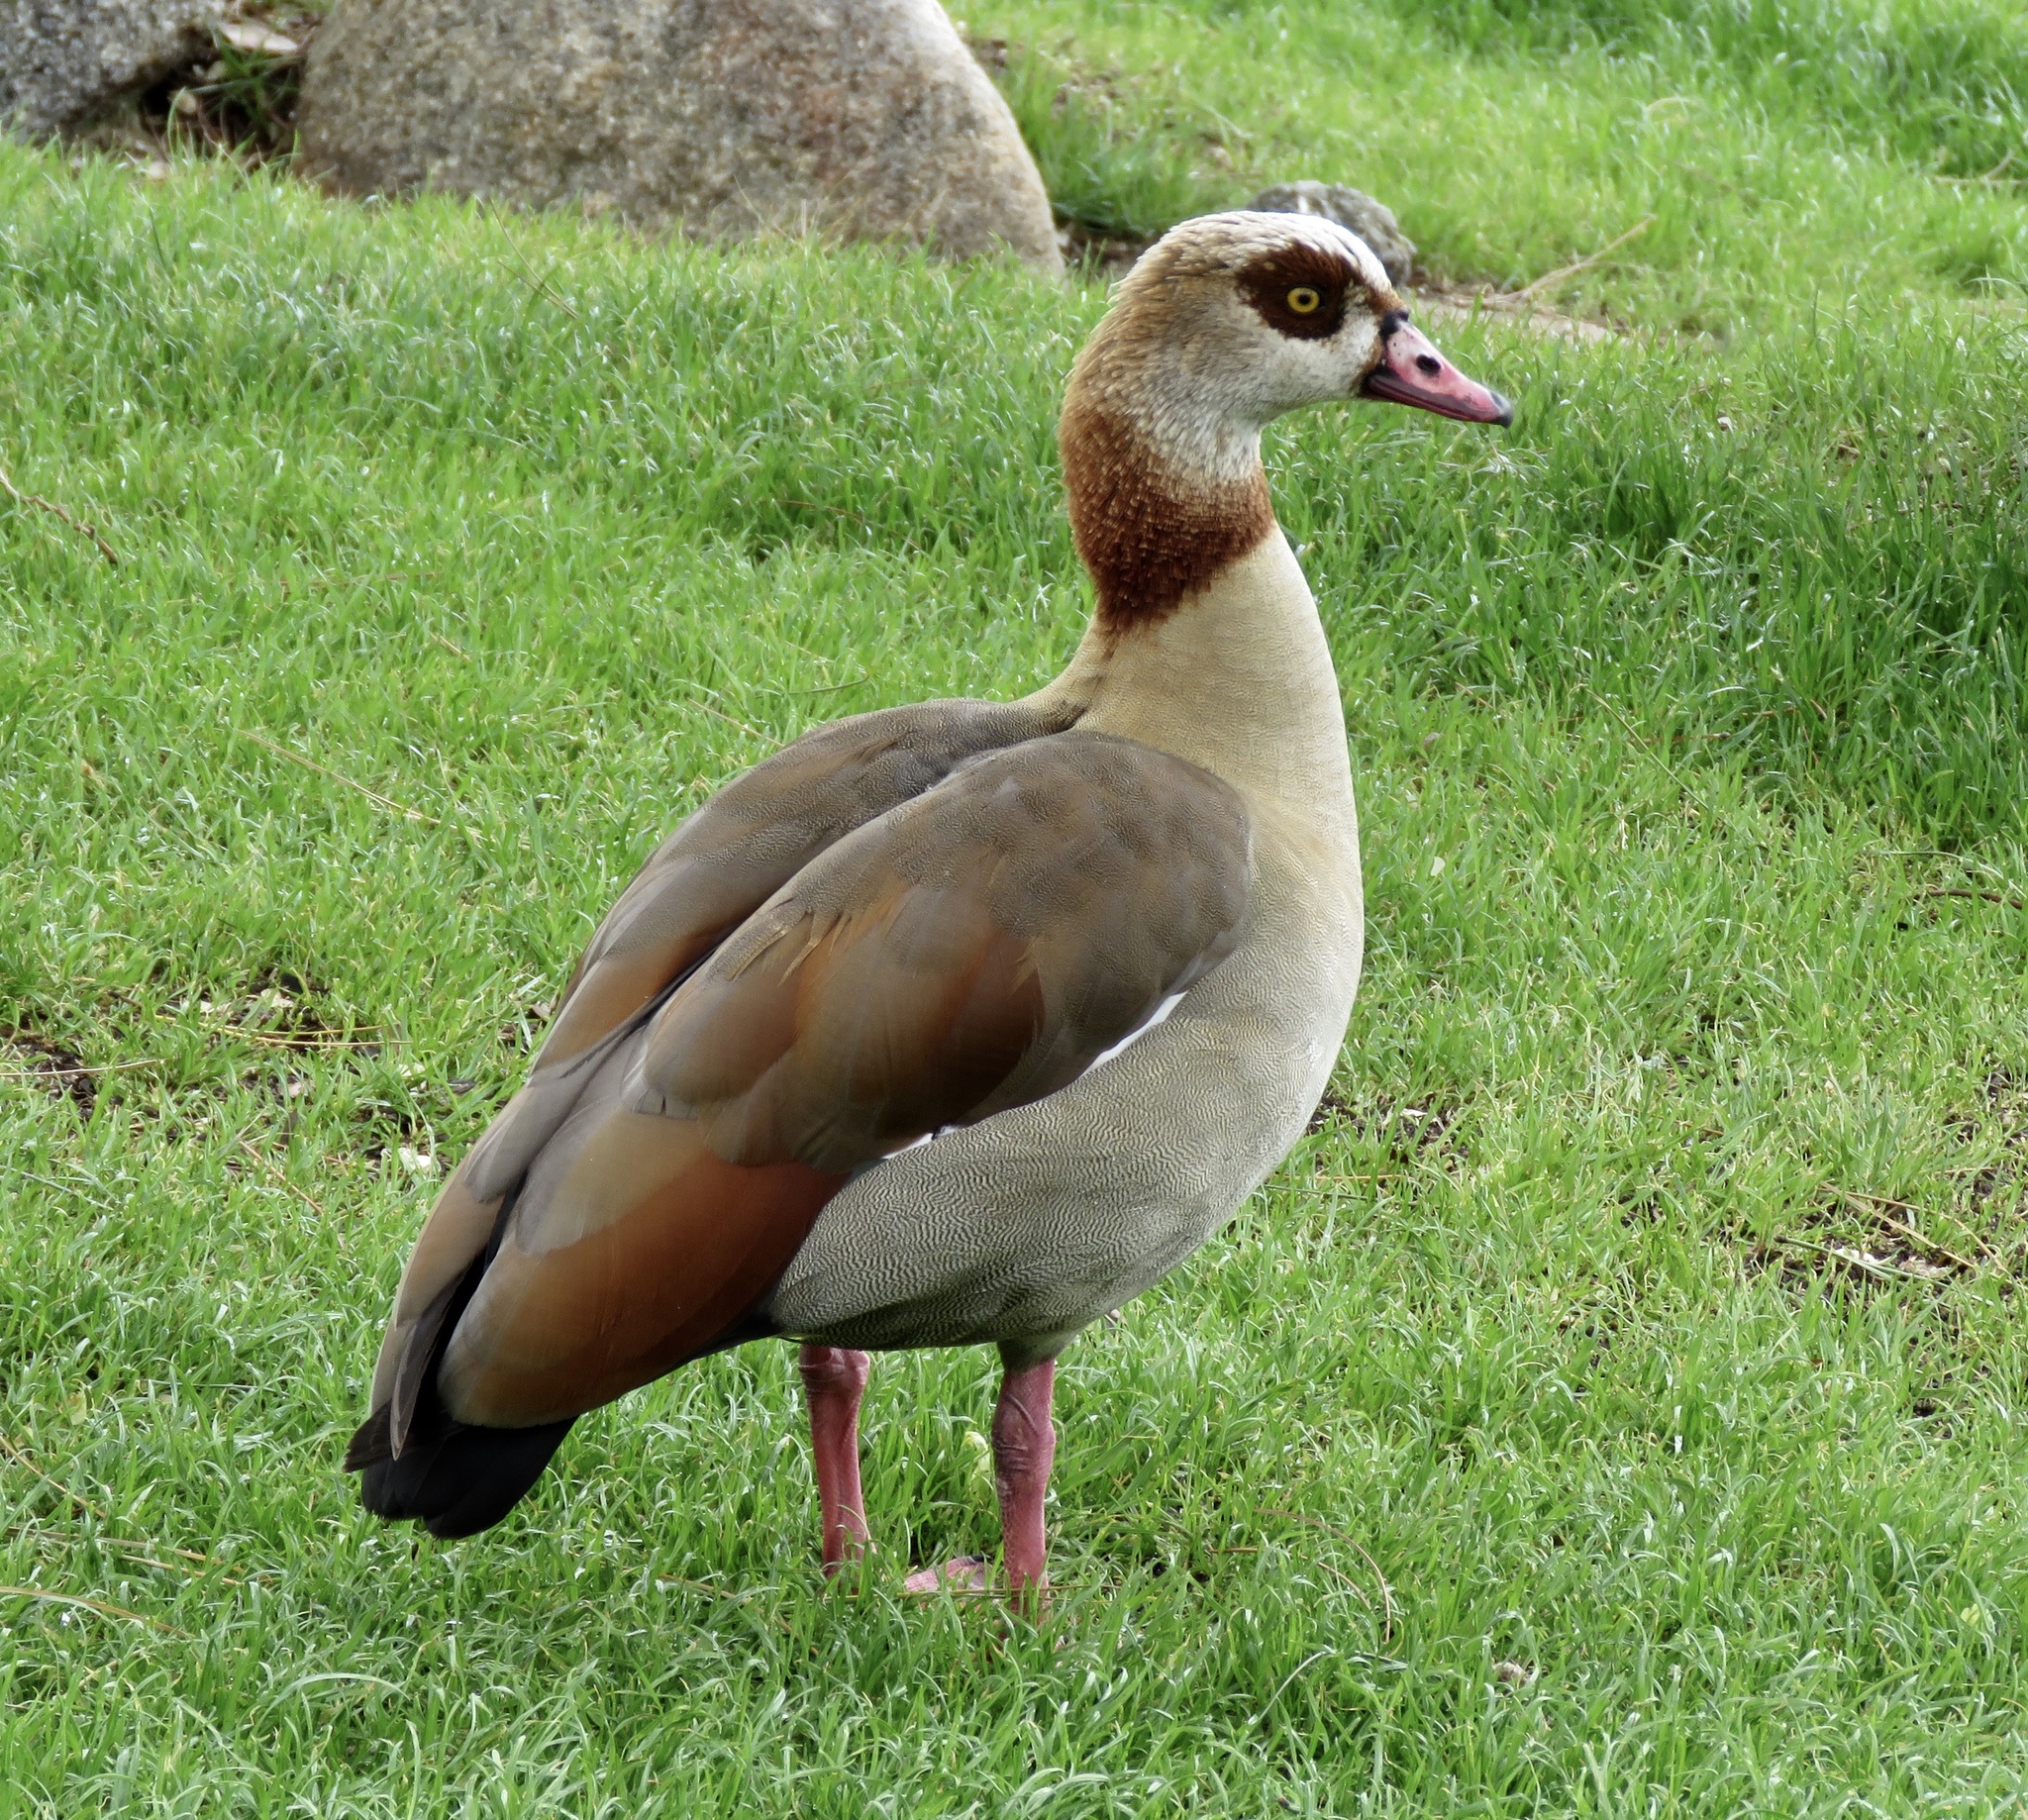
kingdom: Animalia
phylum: Chordata
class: Aves
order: Anseriformes
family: Anatidae
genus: Alopochen
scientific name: Alopochen aegyptiaca
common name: Egyptian goose
